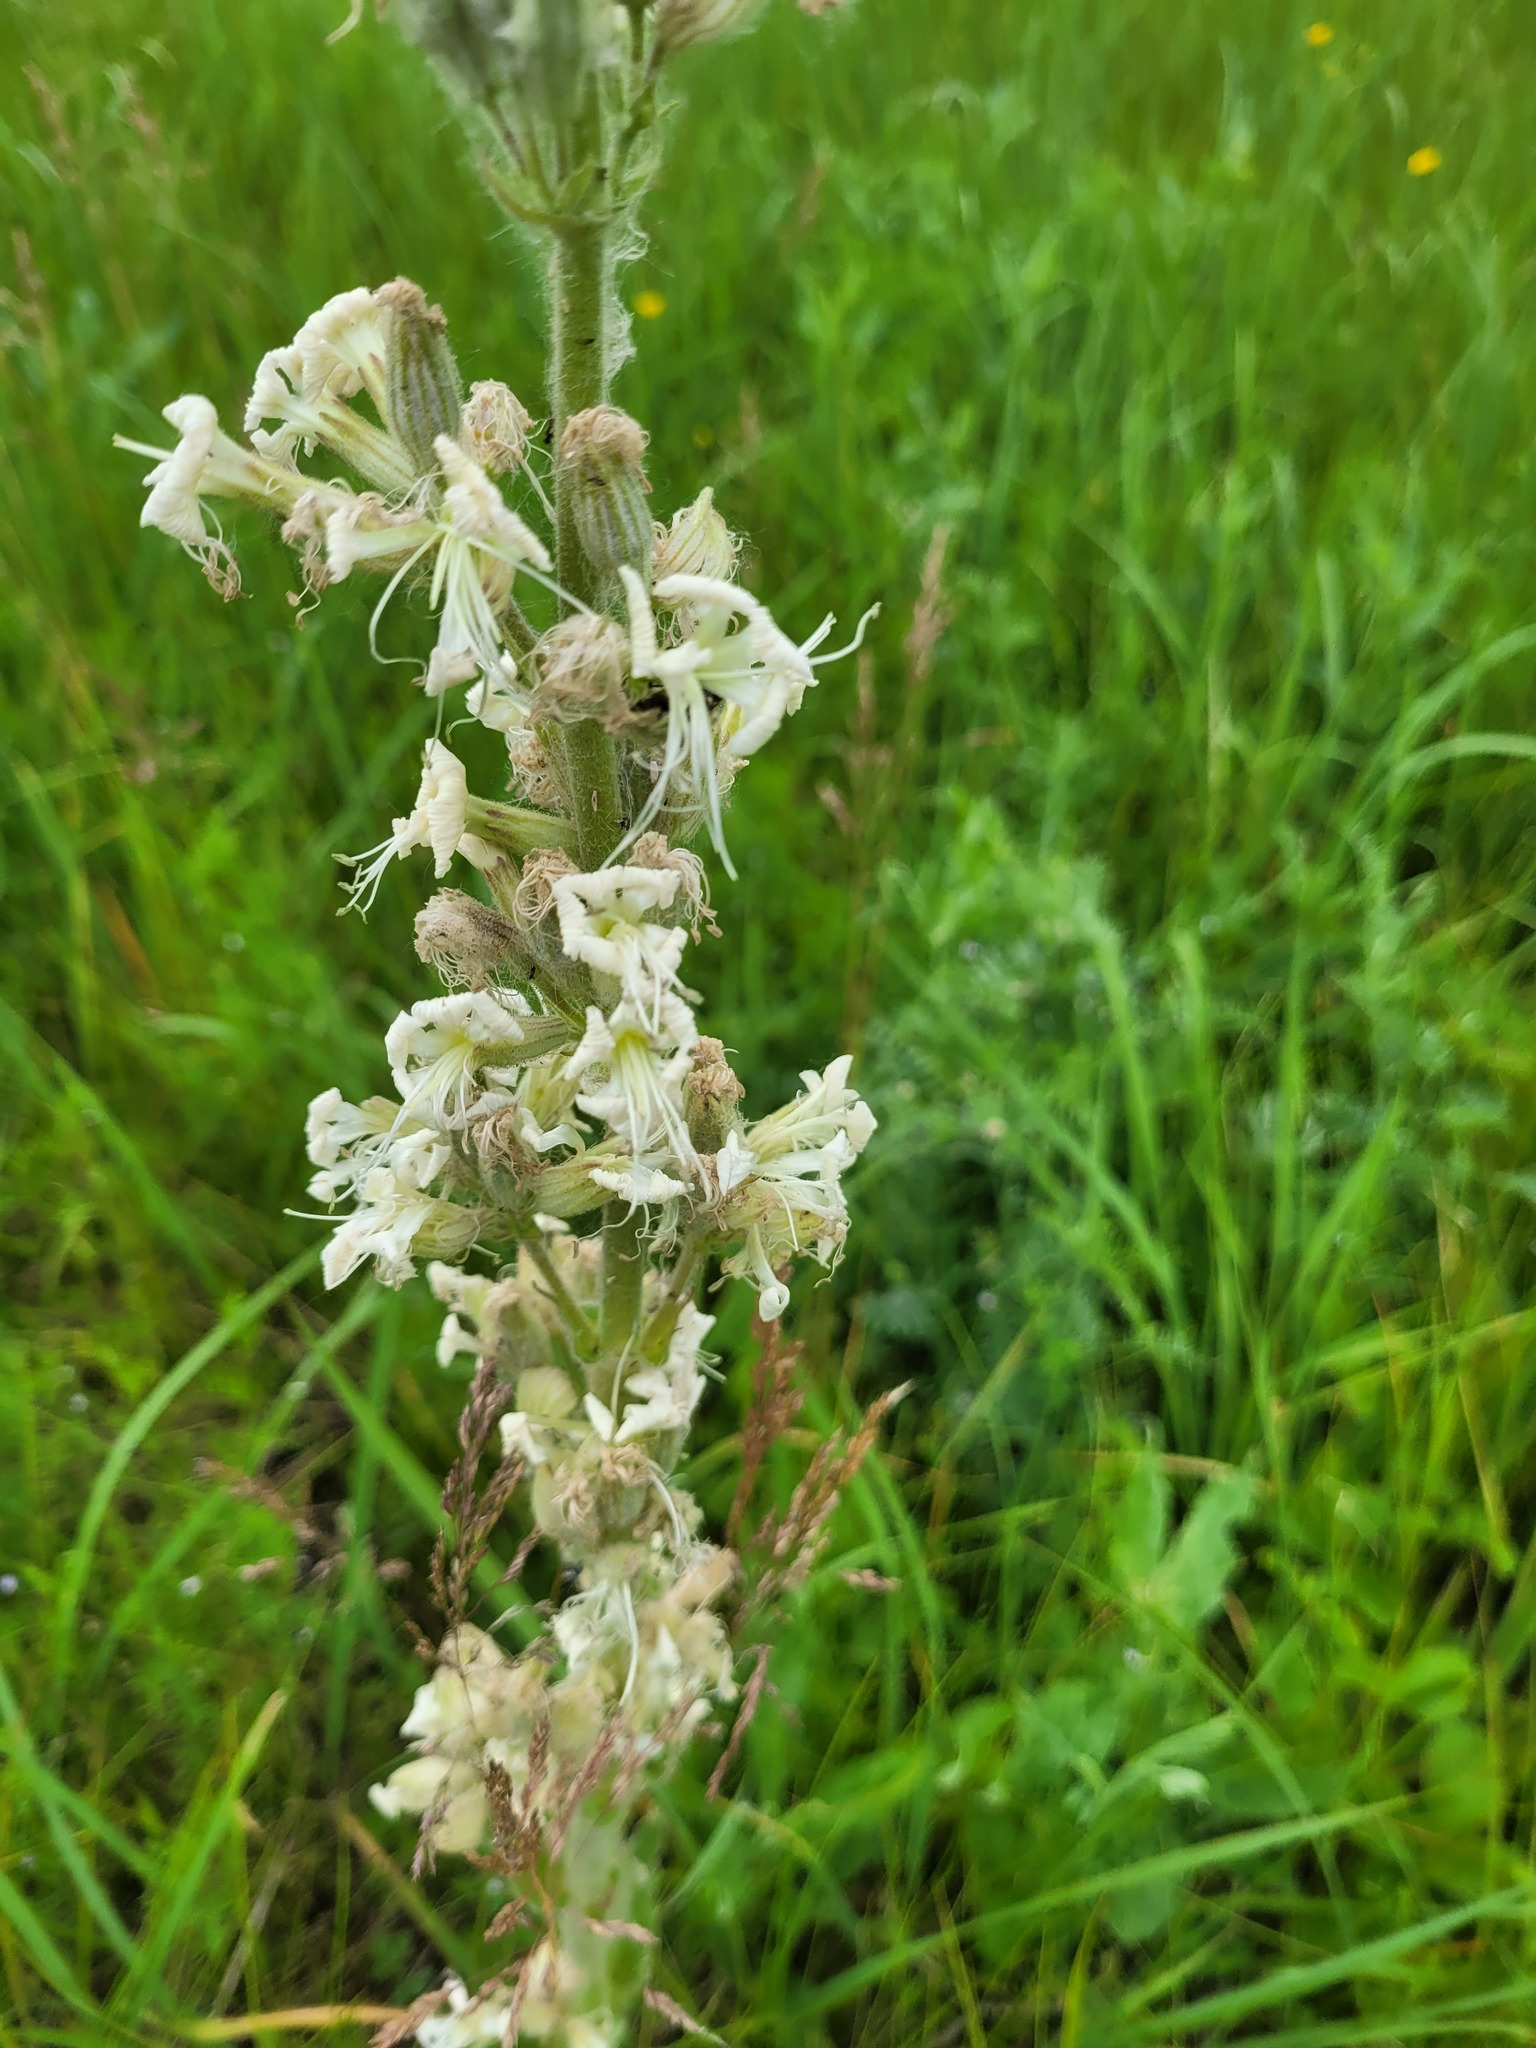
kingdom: Plantae
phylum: Tracheophyta
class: Magnoliopsida
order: Caryophyllales
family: Caryophyllaceae
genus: Silene
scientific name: Silene viscosa
